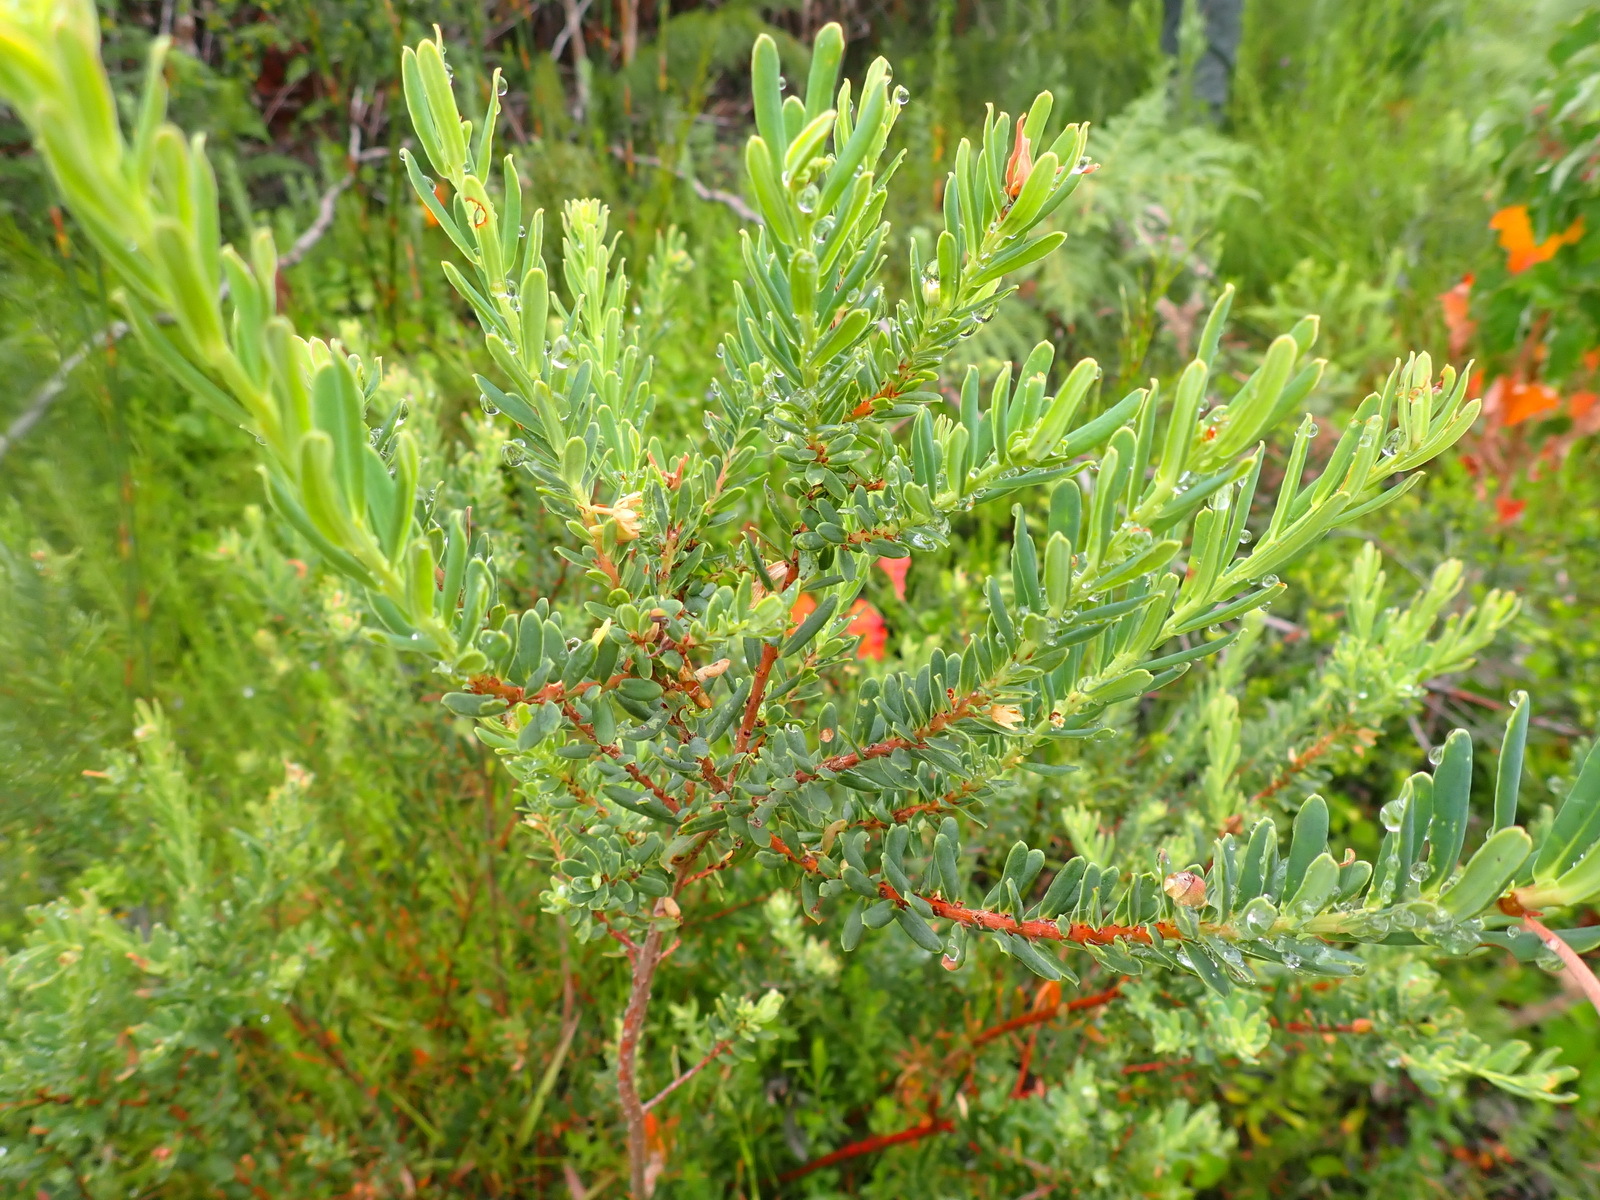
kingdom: Plantae
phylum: Tracheophyta
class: Magnoliopsida
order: Malpighiales
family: Peraceae
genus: Clutia
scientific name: Clutia laxa
